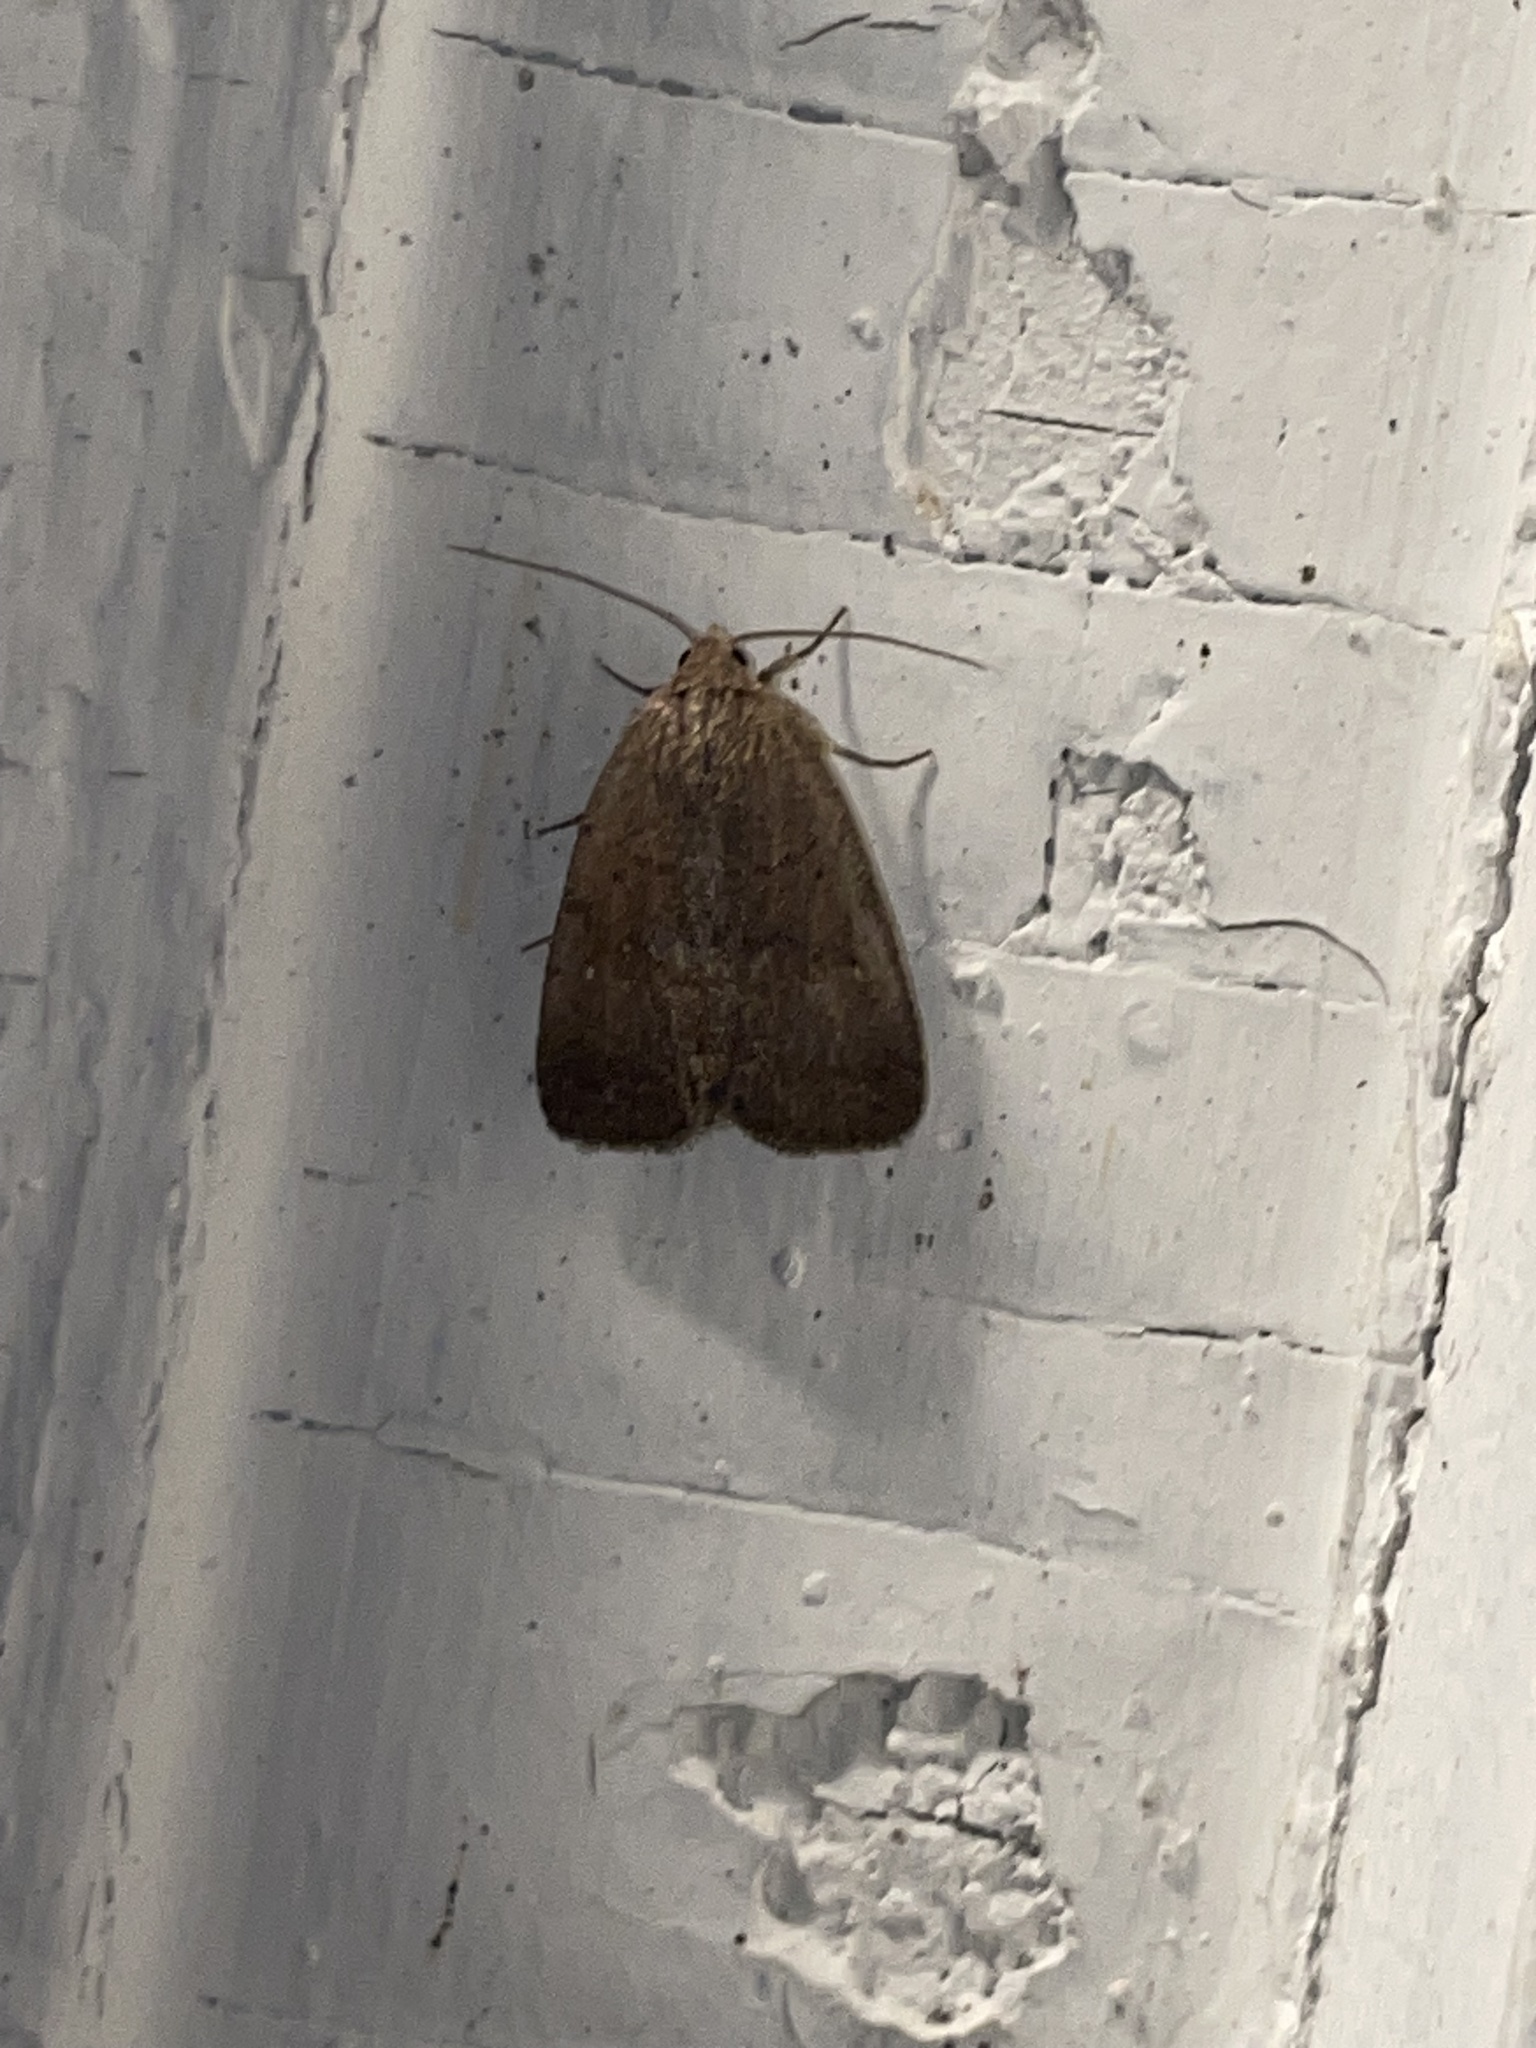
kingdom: Animalia
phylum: Arthropoda
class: Insecta
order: Lepidoptera
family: Noctuidae
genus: Athetis
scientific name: Athetis tarda
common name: Slowpoke moth
